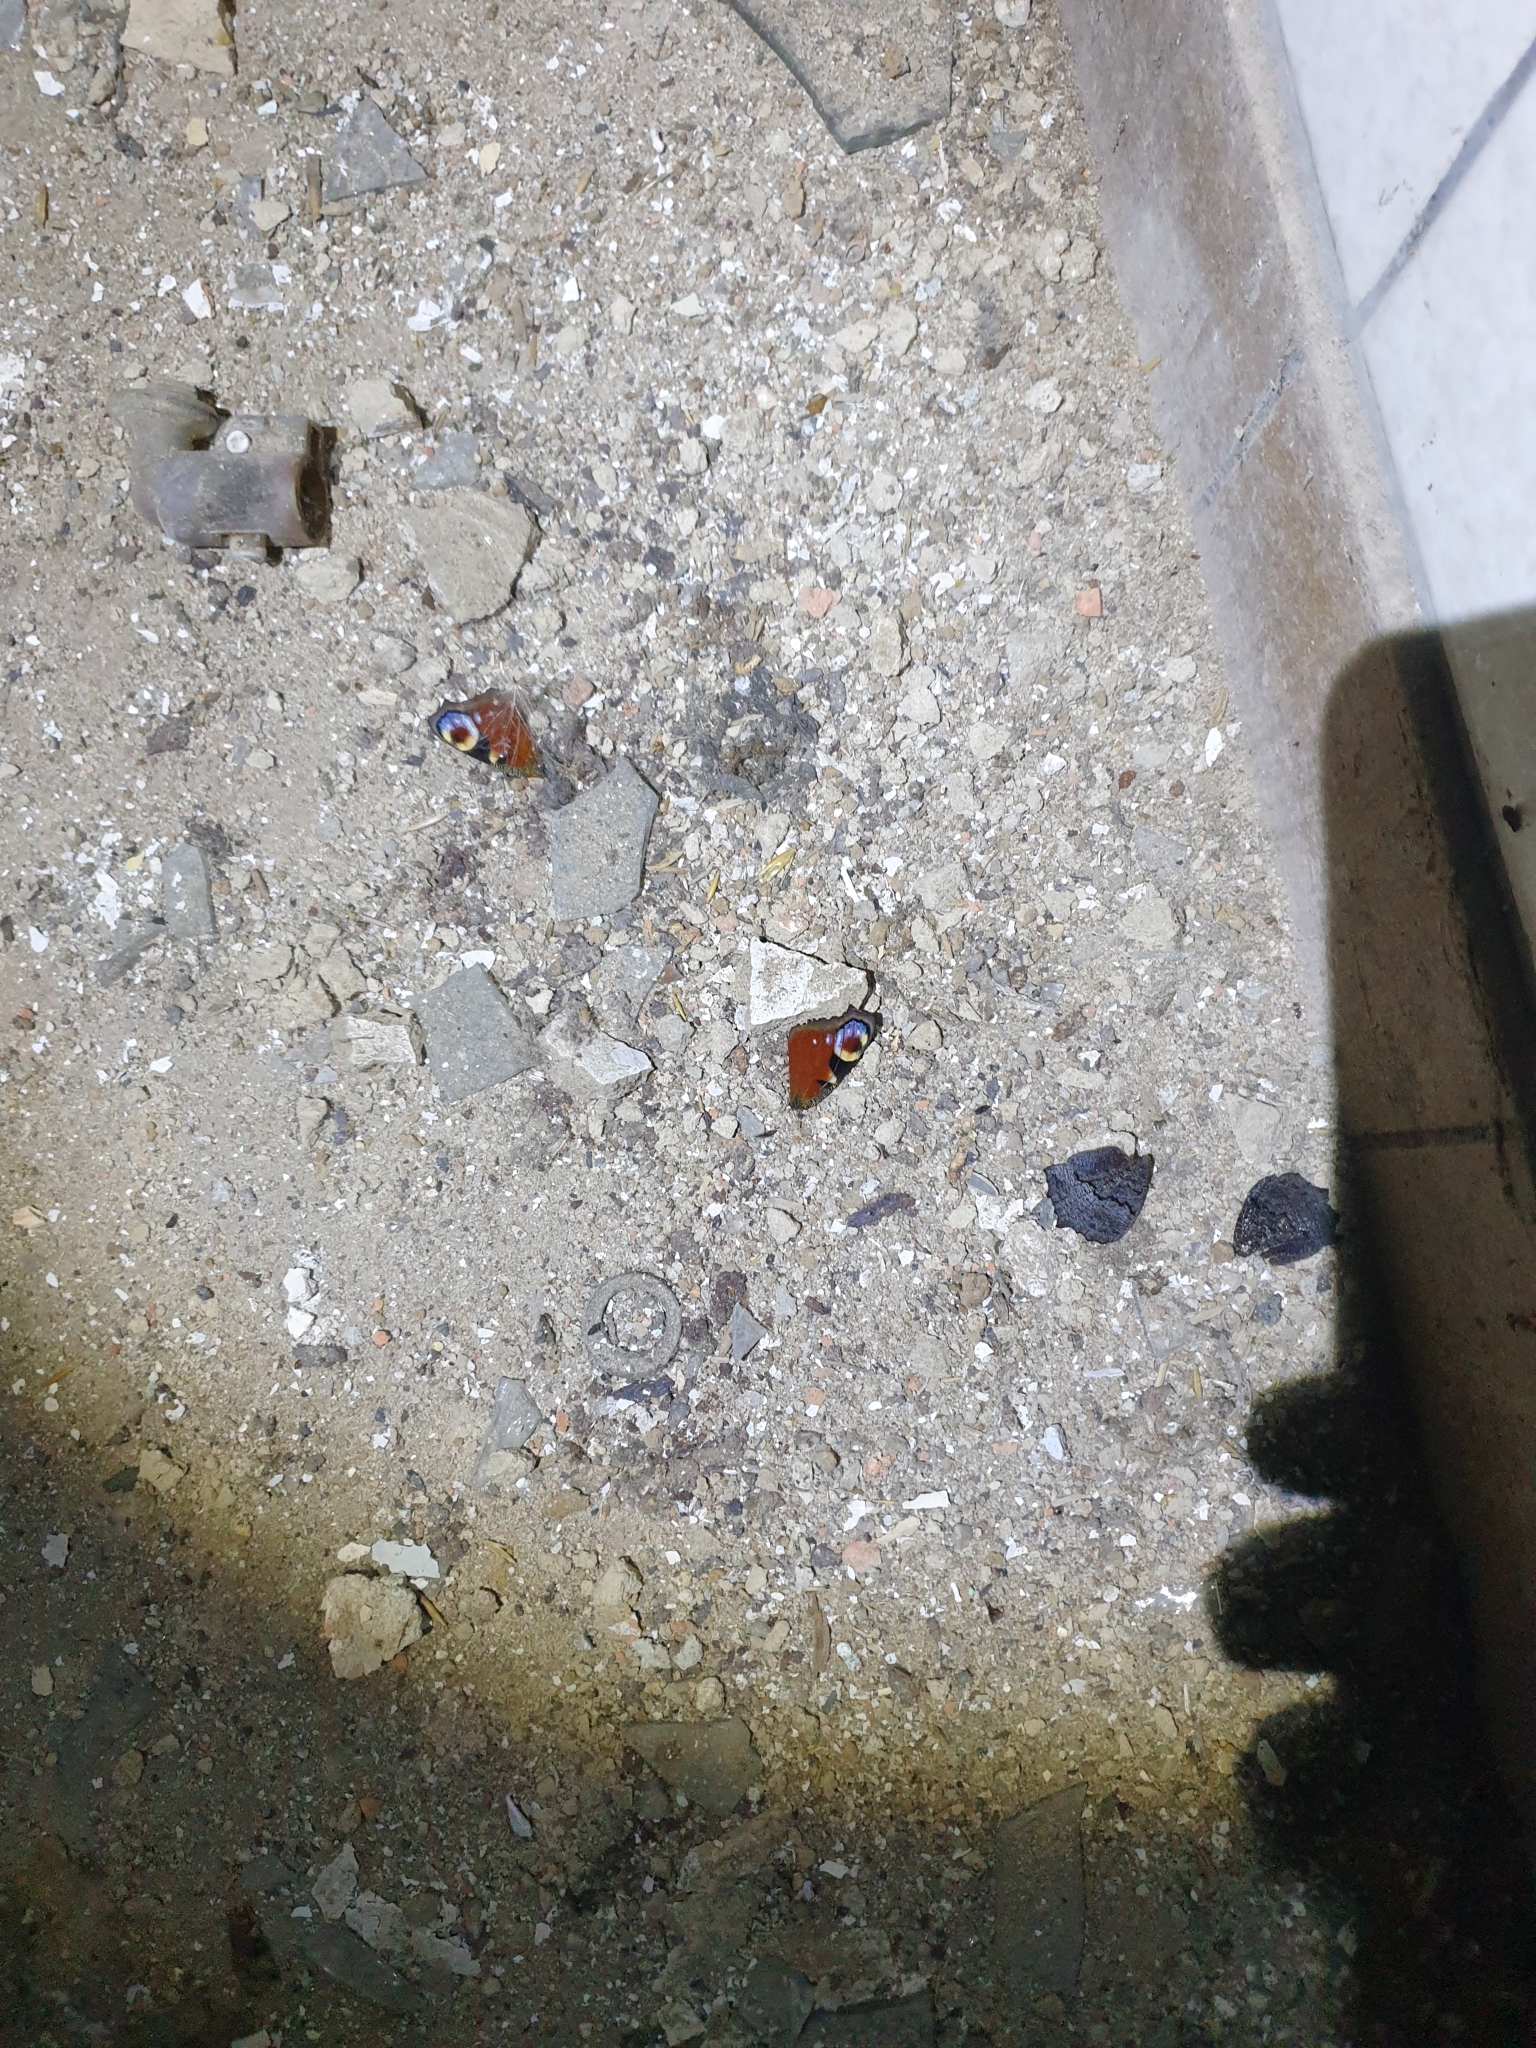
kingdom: Animalia
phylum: Arthropoda
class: Insecta
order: Lepidoptera
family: Nymphalidae
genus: Aglais
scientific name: Aglais io
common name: Peacock
